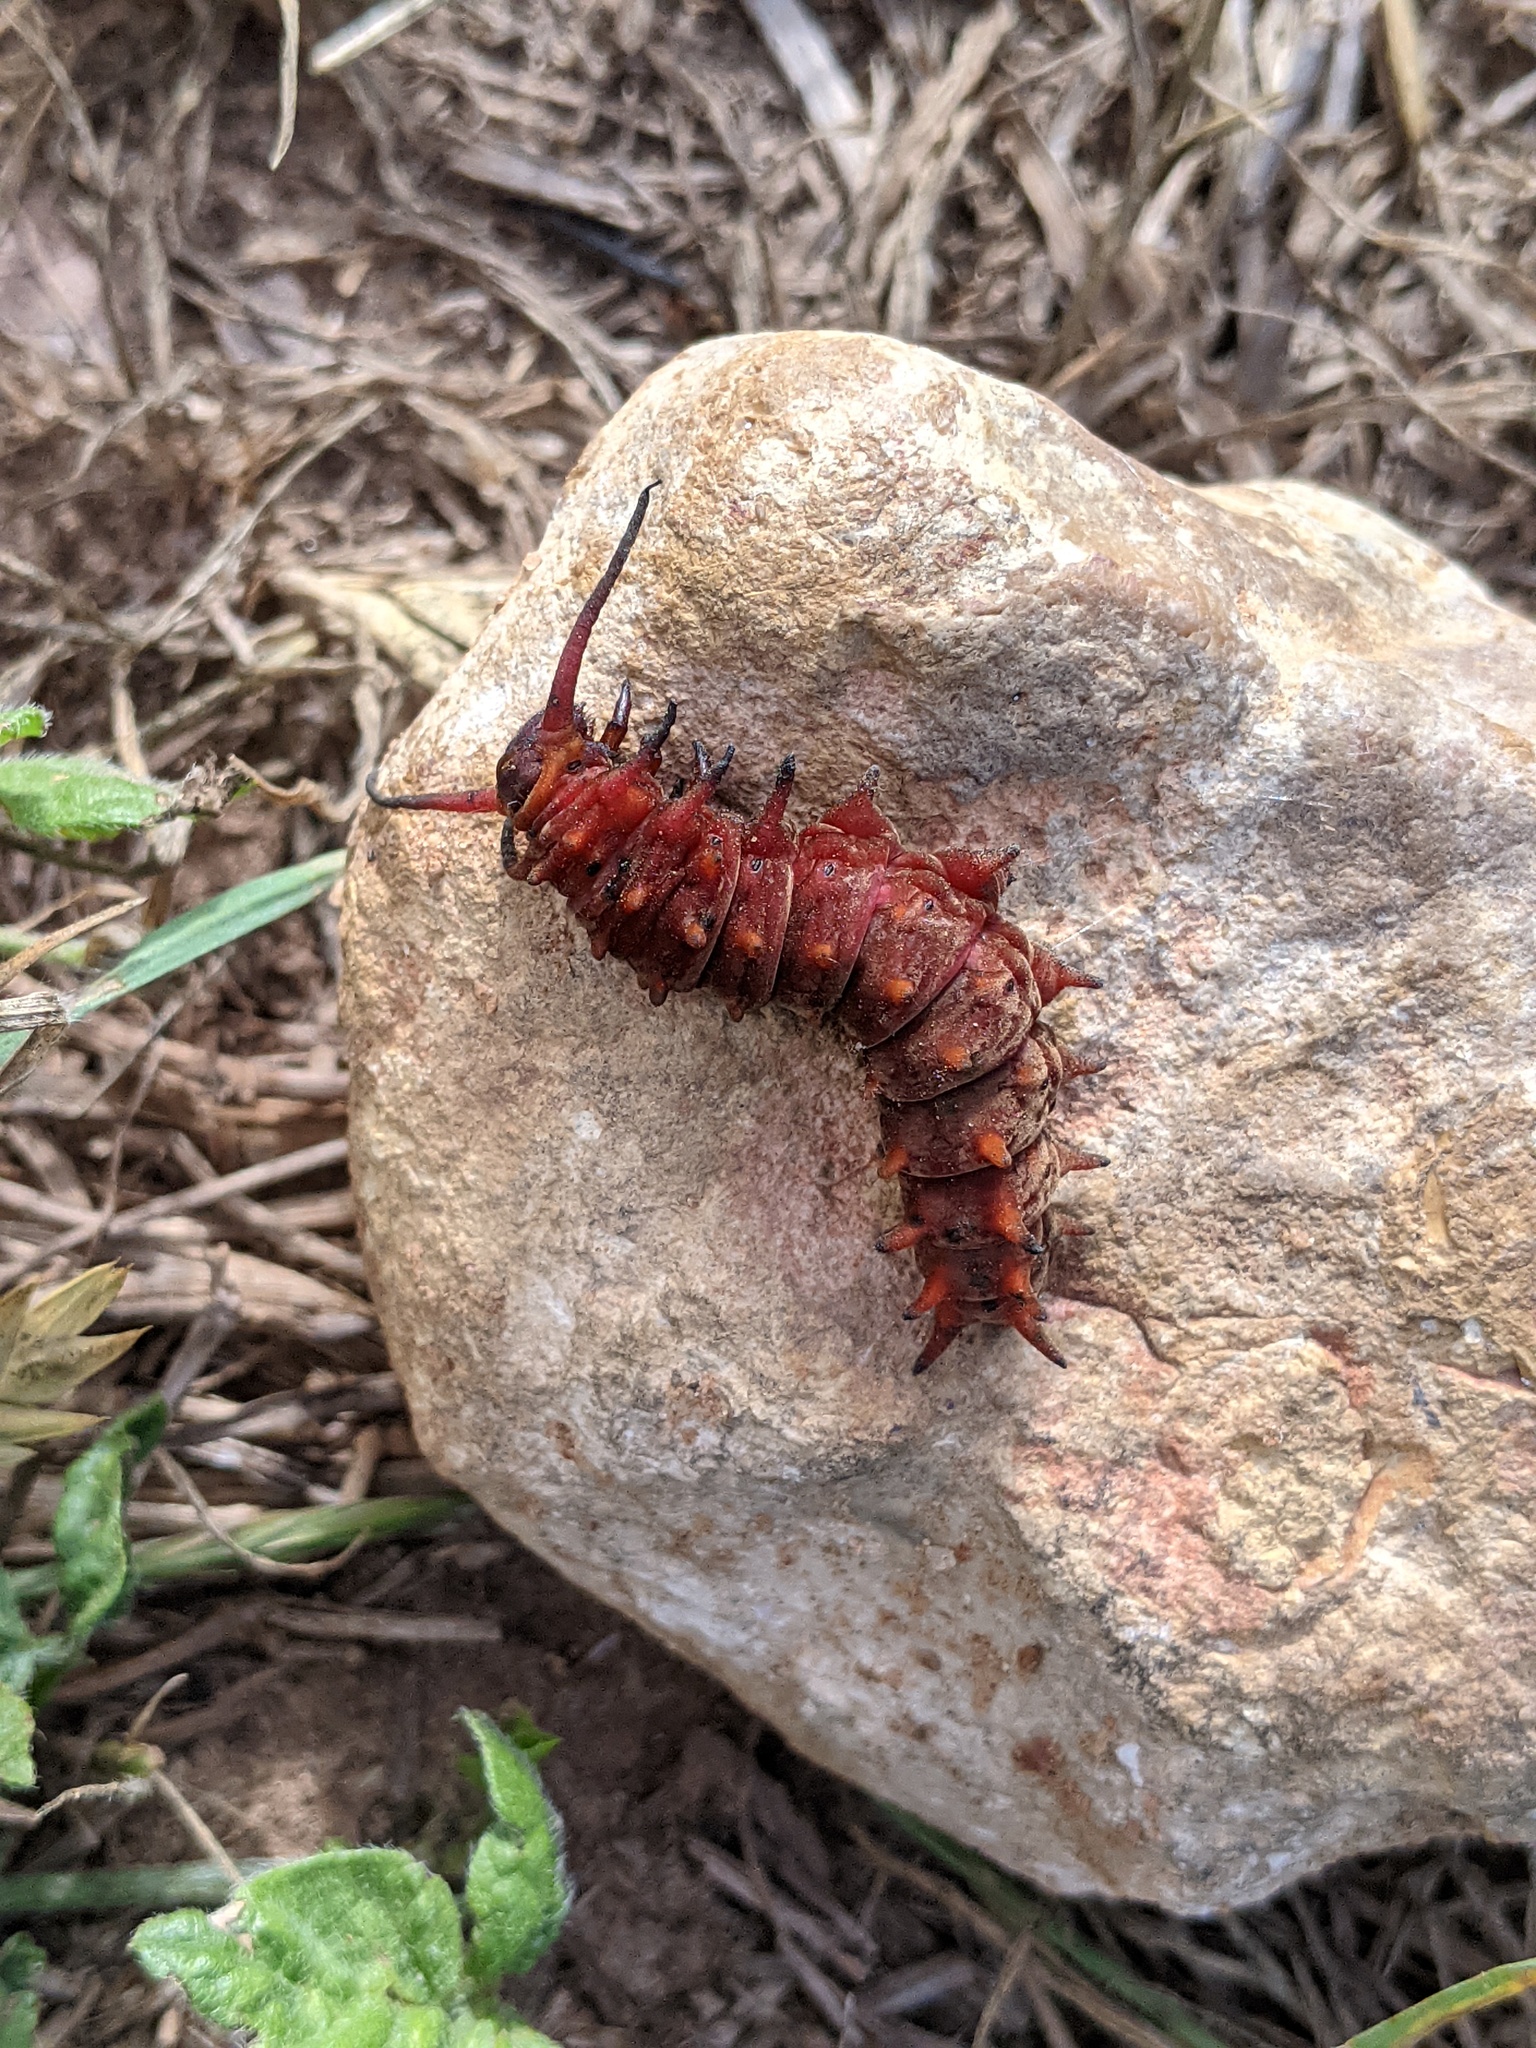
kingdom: Animalia
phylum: Arthropoda
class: Insecta
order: Lepidoptera
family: Papilionidae
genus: Battus
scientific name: Battus philenor
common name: Pipevine swallowtail
